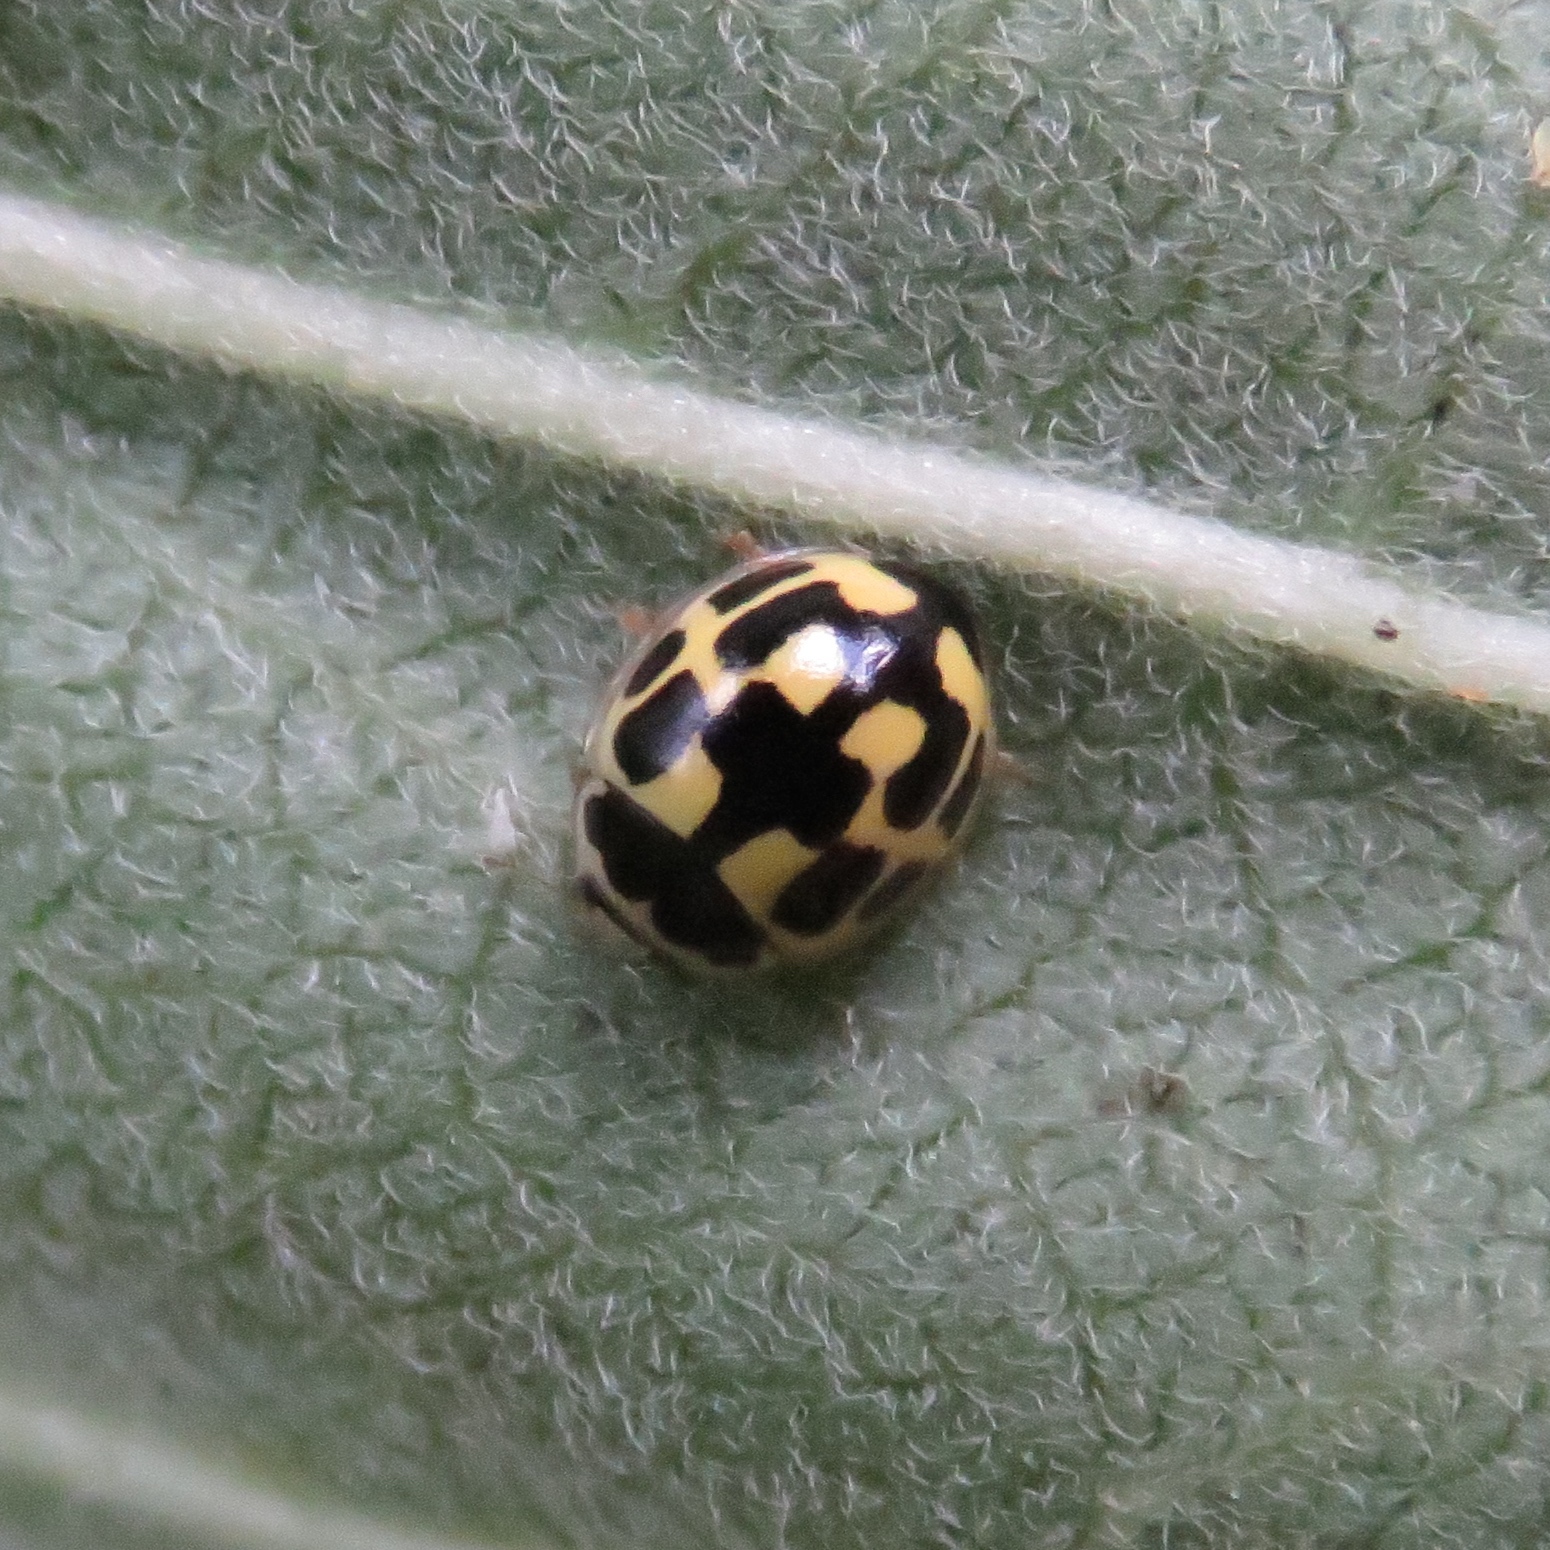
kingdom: Animalia
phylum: Arthropoda
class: Insecta
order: Coleoptera
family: Coccinellidae
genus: Propylaea
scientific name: Propylaea quatuordecimpunctata
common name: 14-spotted ladybird beetle
